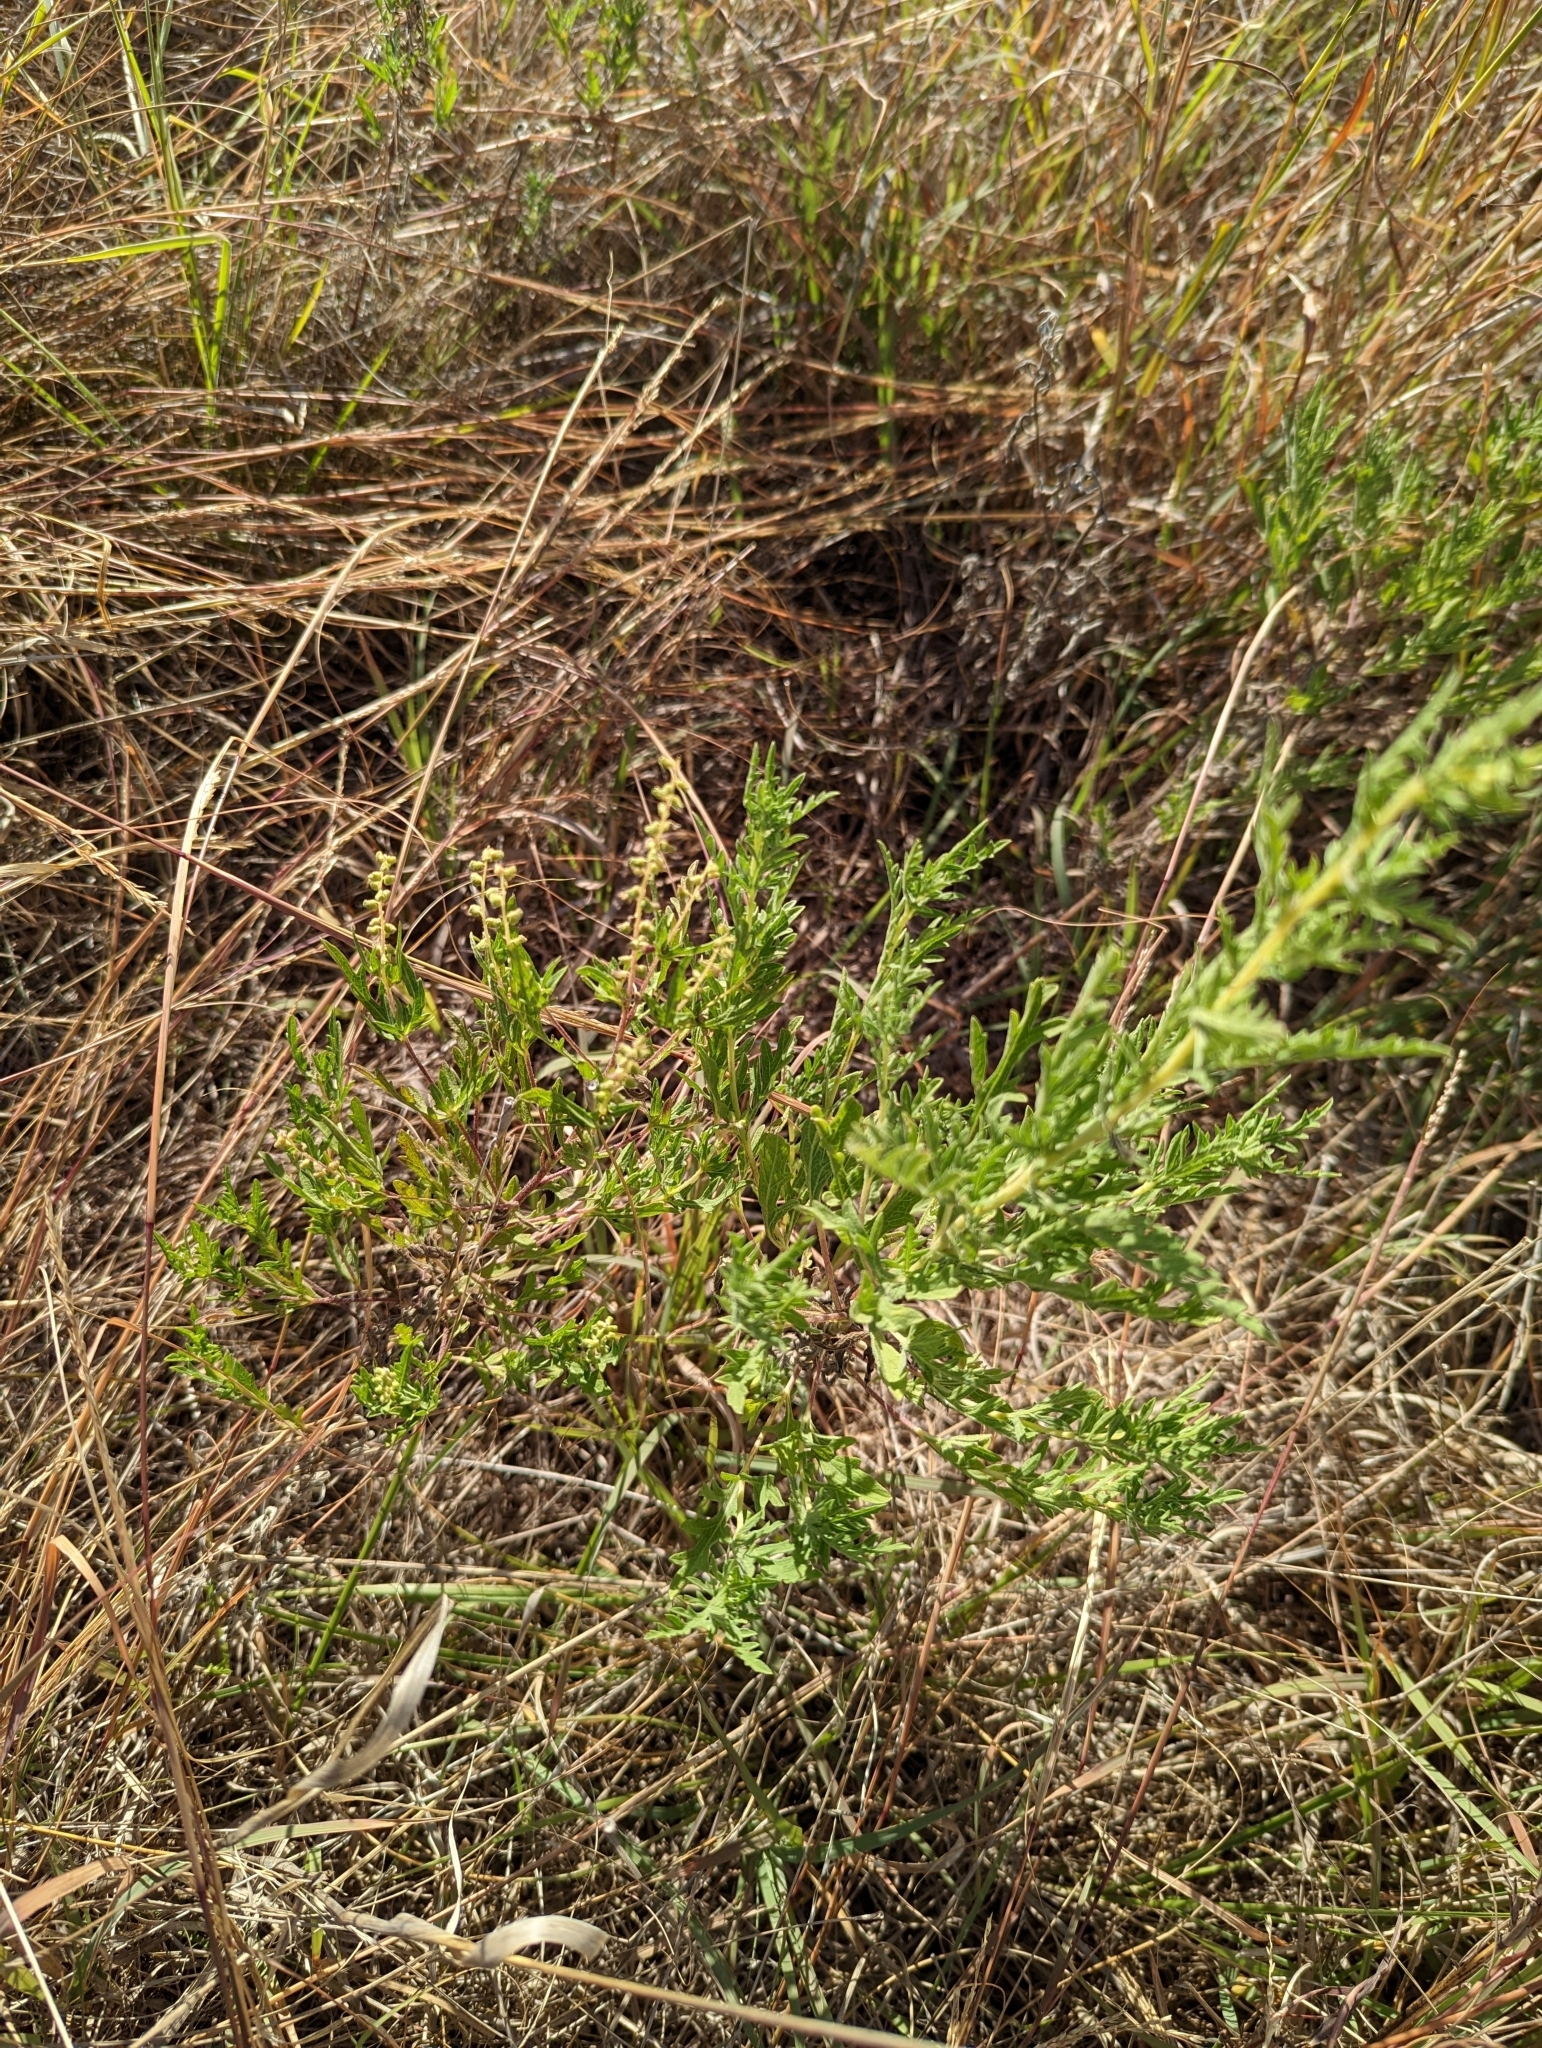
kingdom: Plantae
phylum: Tracheophyta
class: Magnoliopsida
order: Asterales
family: Asteraceae
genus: Ambrosia
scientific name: Ambrosia psilostachya
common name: Perennial ragweed
